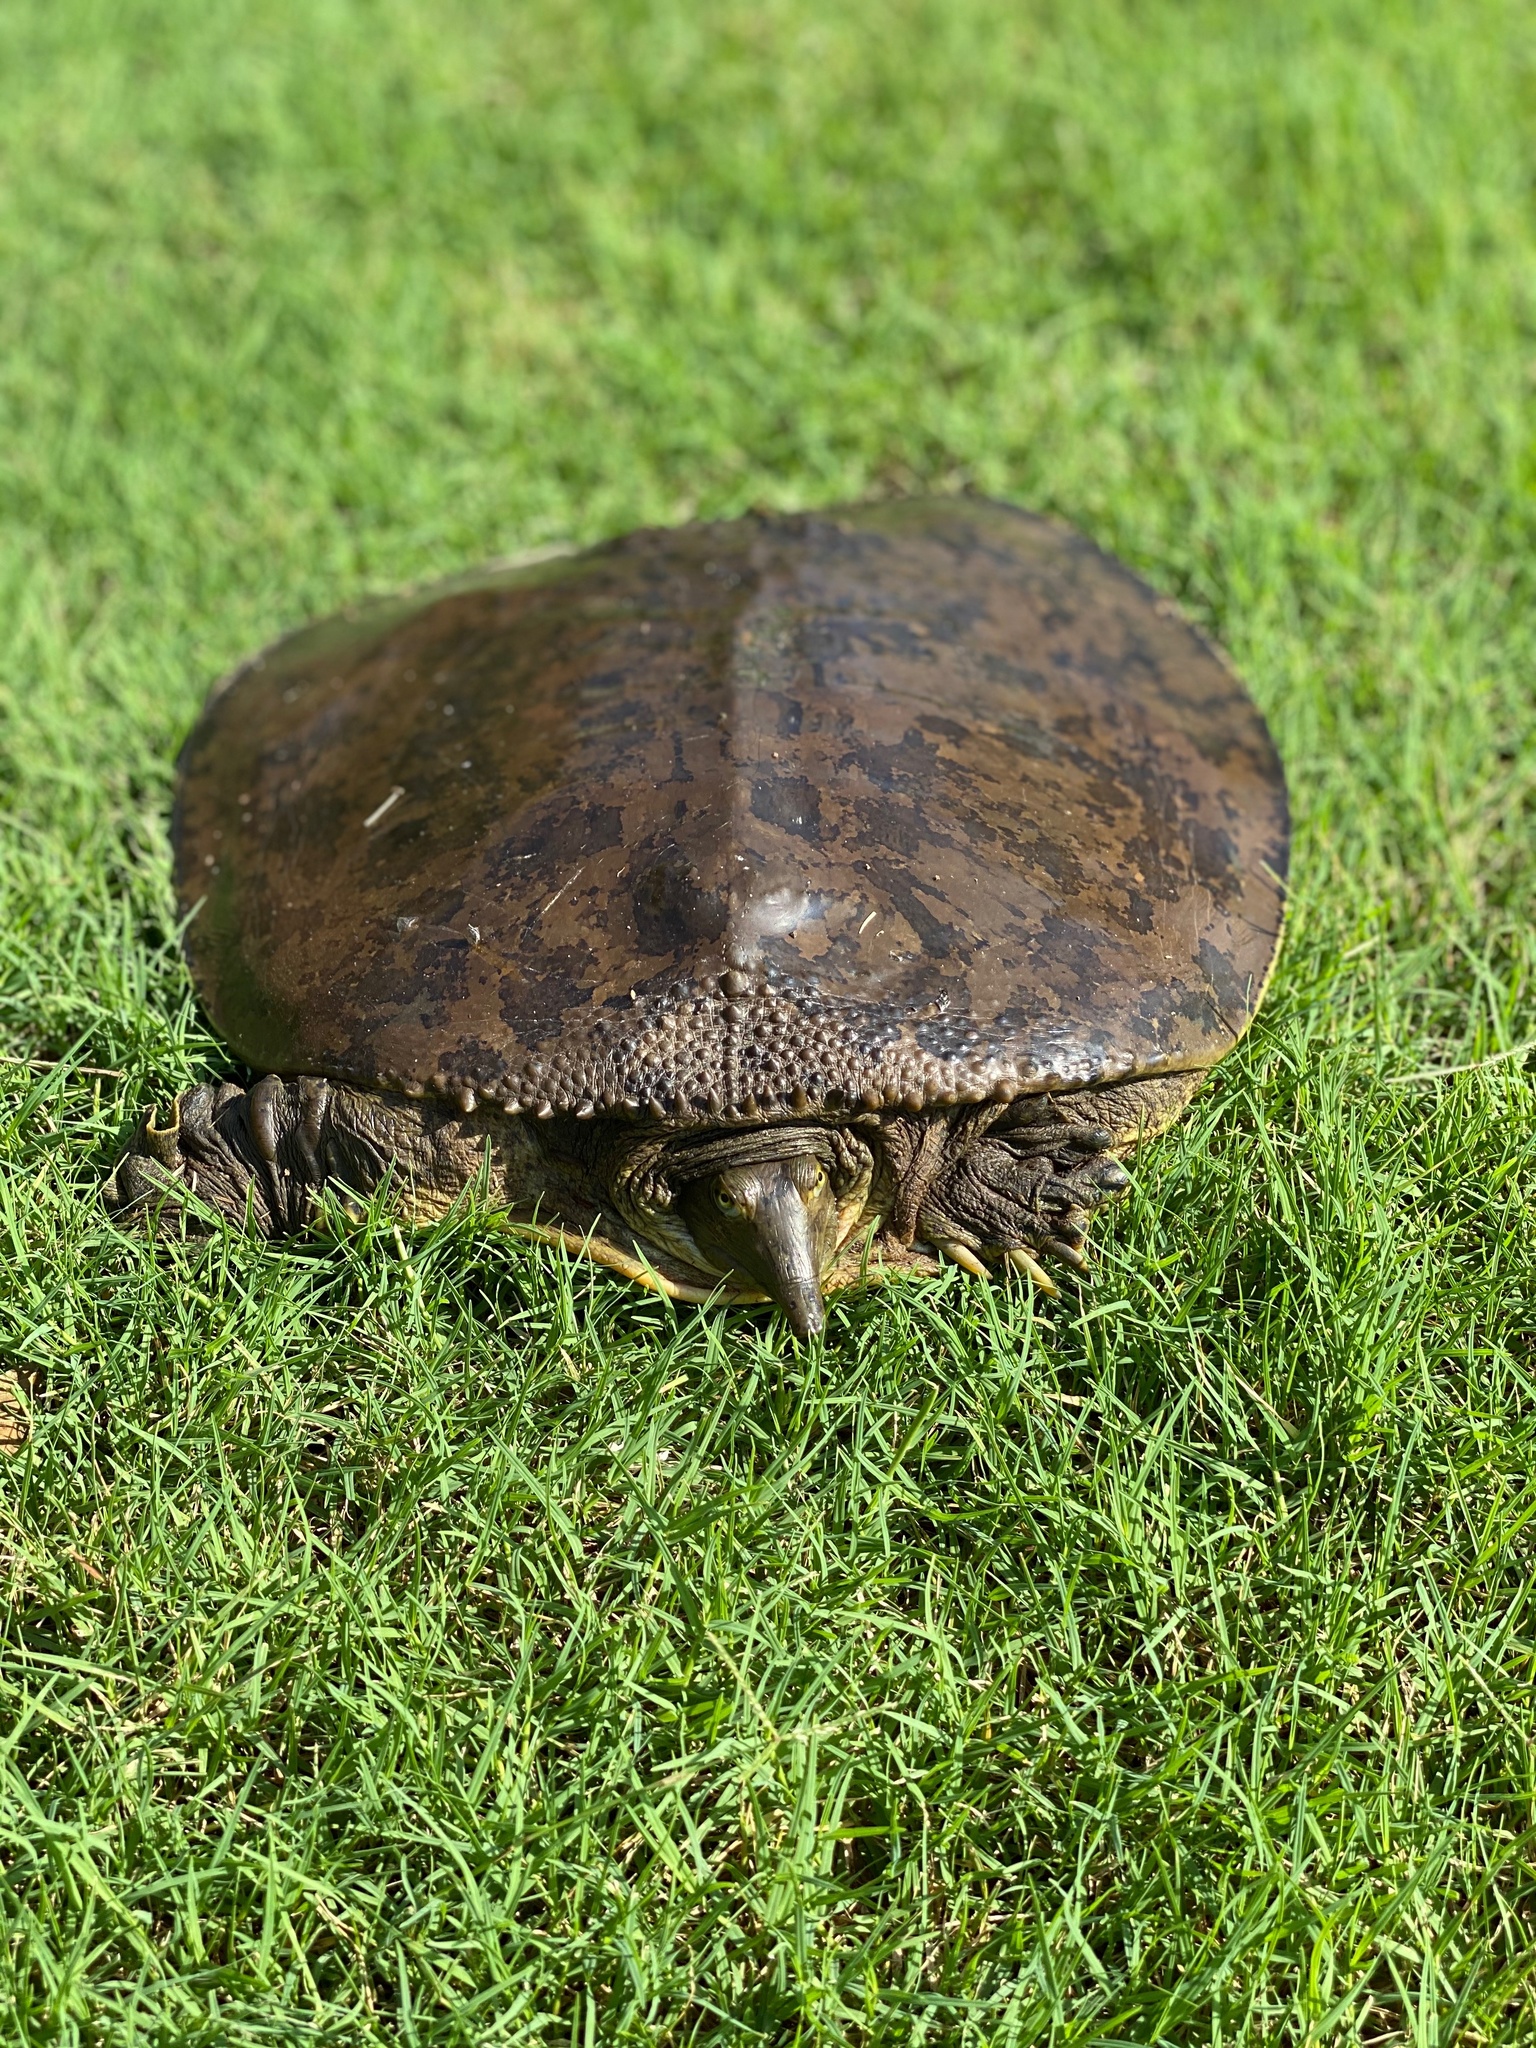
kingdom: Animalia
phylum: Chordata
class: Testudines
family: Trionychidae
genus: Apalone
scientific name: Apalone spinifera
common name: Spiny softshell turtle
